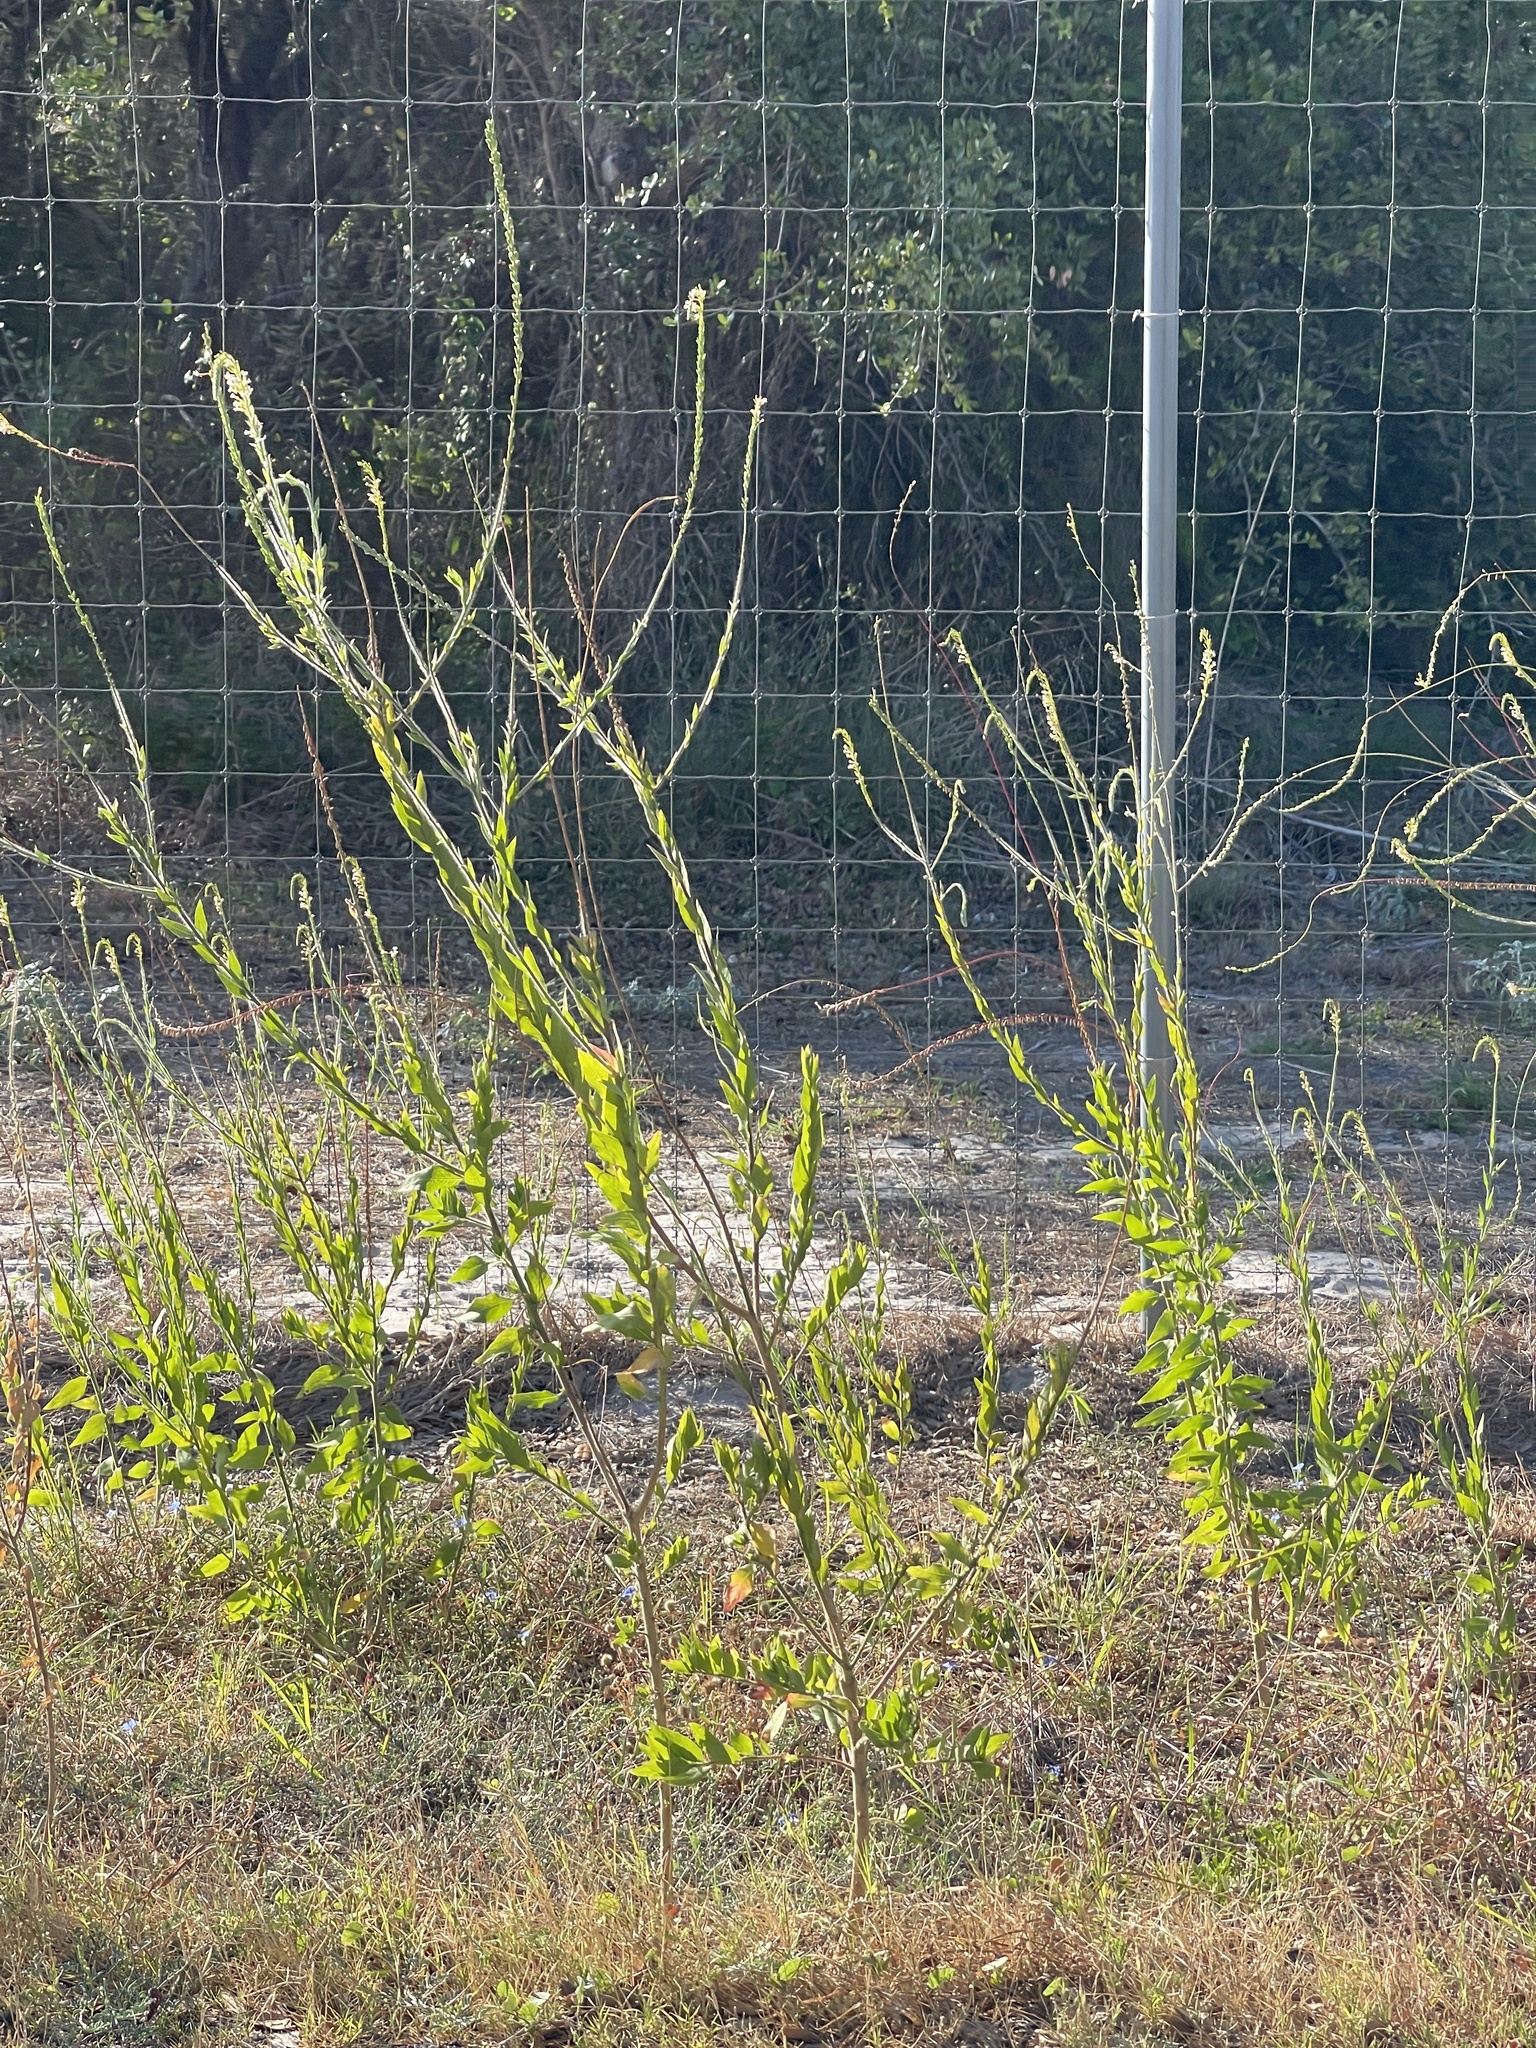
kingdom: Plantae
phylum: Tracheophyta
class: Magnoliopsida
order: Myrtales
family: Onagraceae
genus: Oenothera
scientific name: Oenothera curtiflora
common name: Velvetweed
